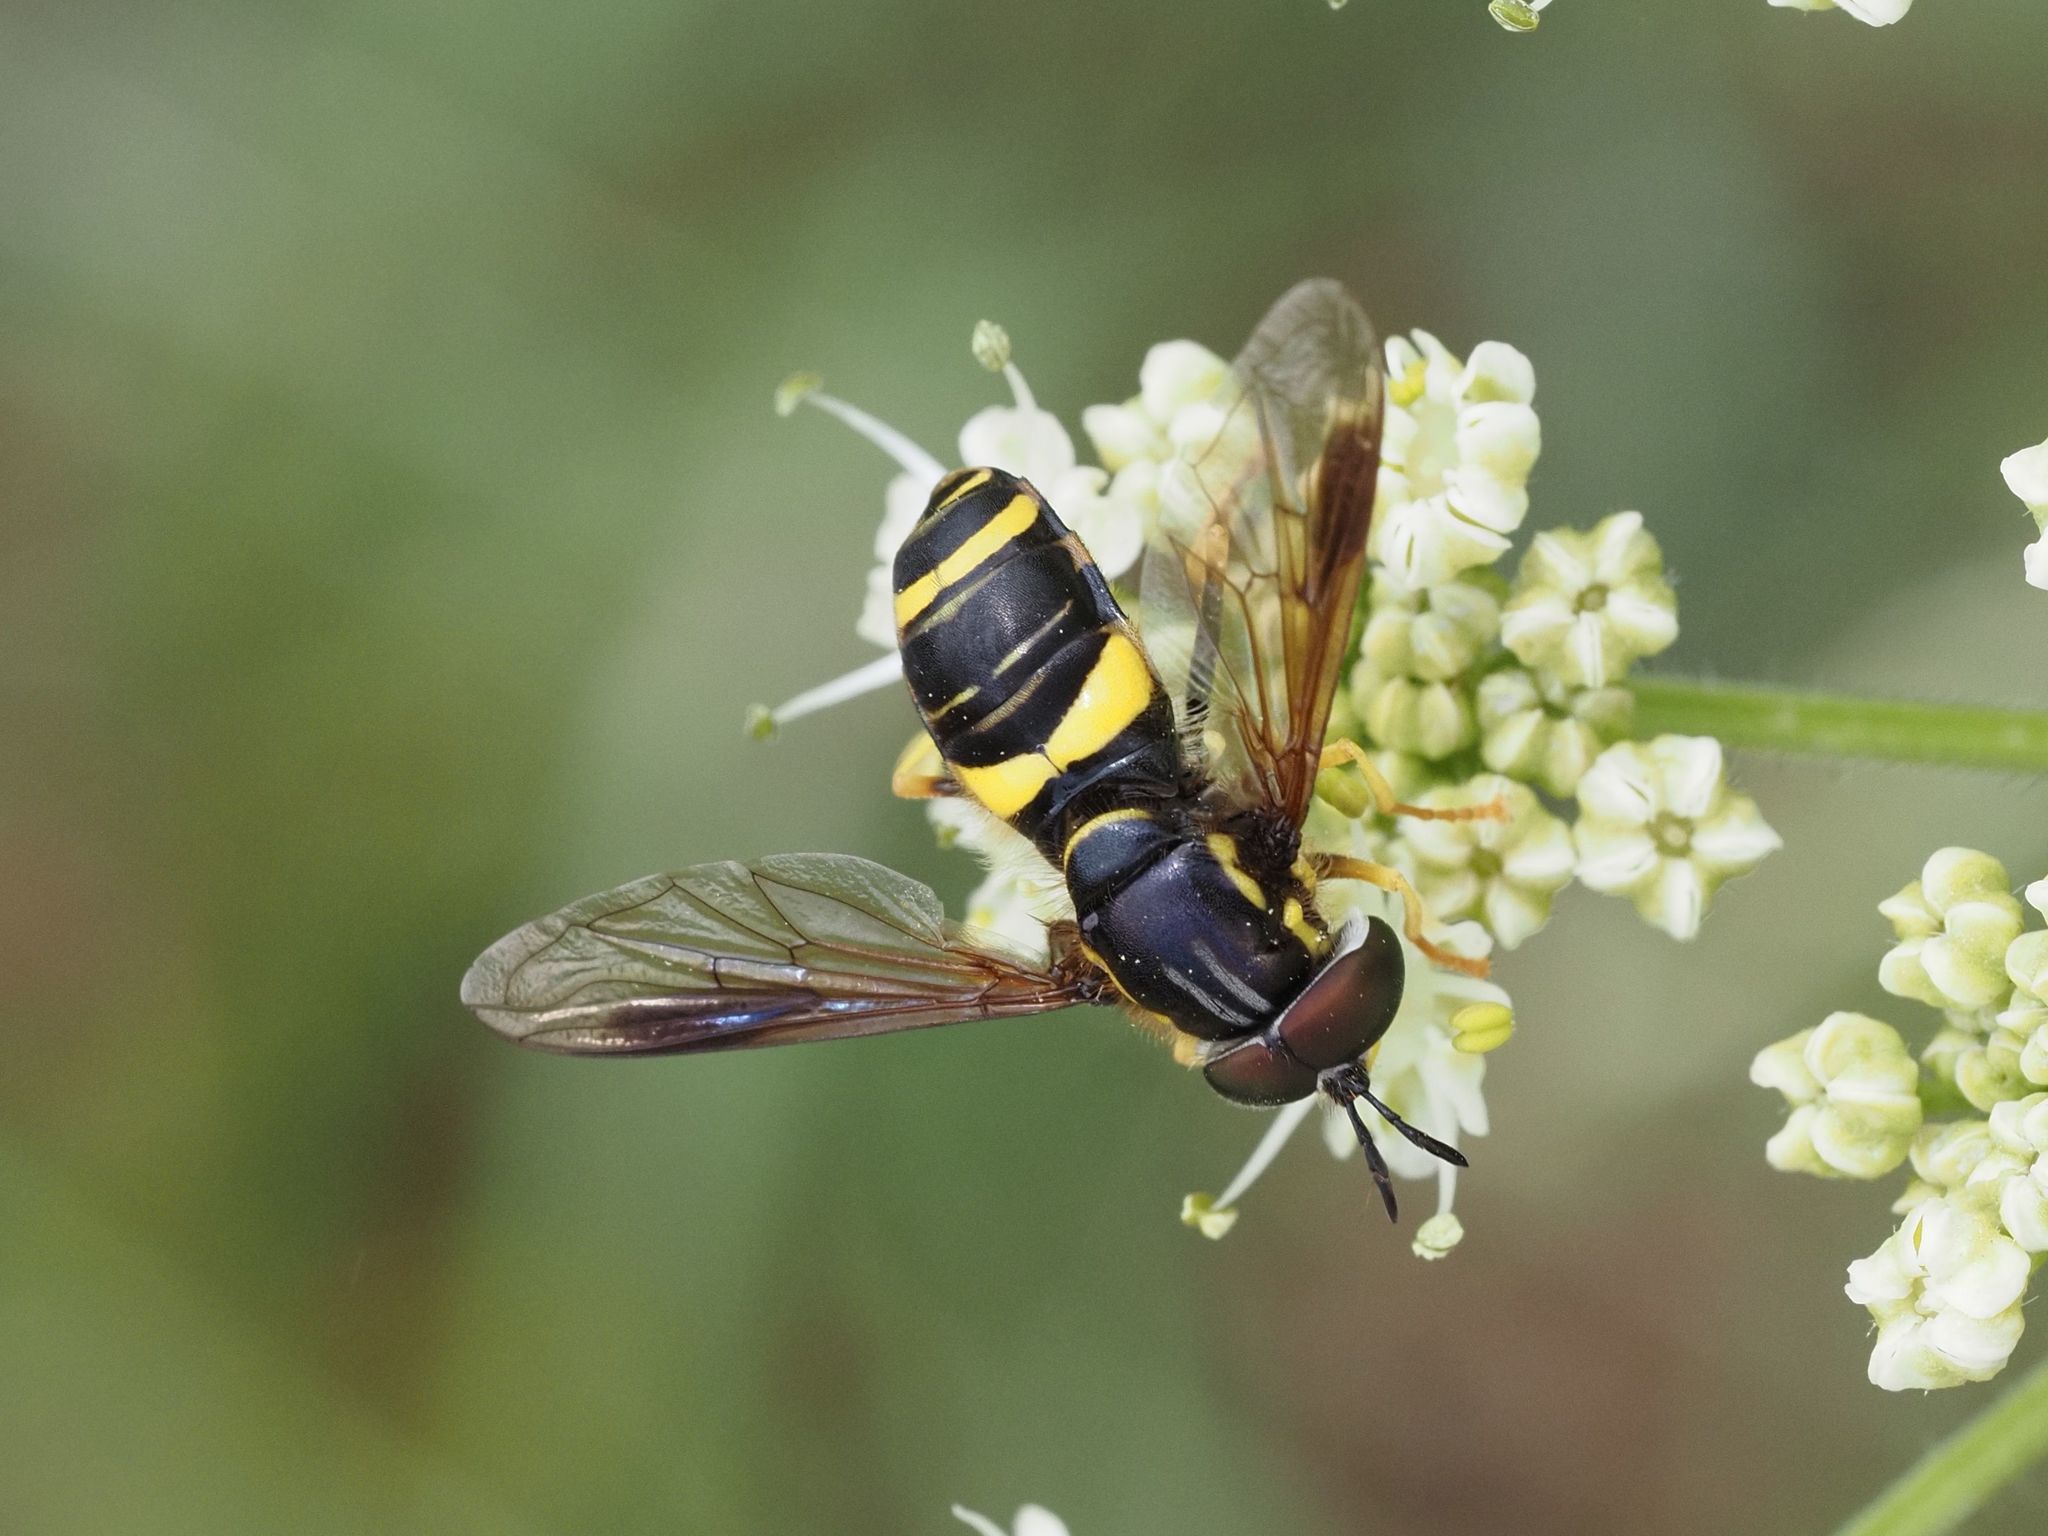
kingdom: Animalia
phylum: Arthropoda
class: Insecta
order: Diptera
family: Syrphidae
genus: Chrysotoxum
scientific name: Chrysotoxum bicincta
